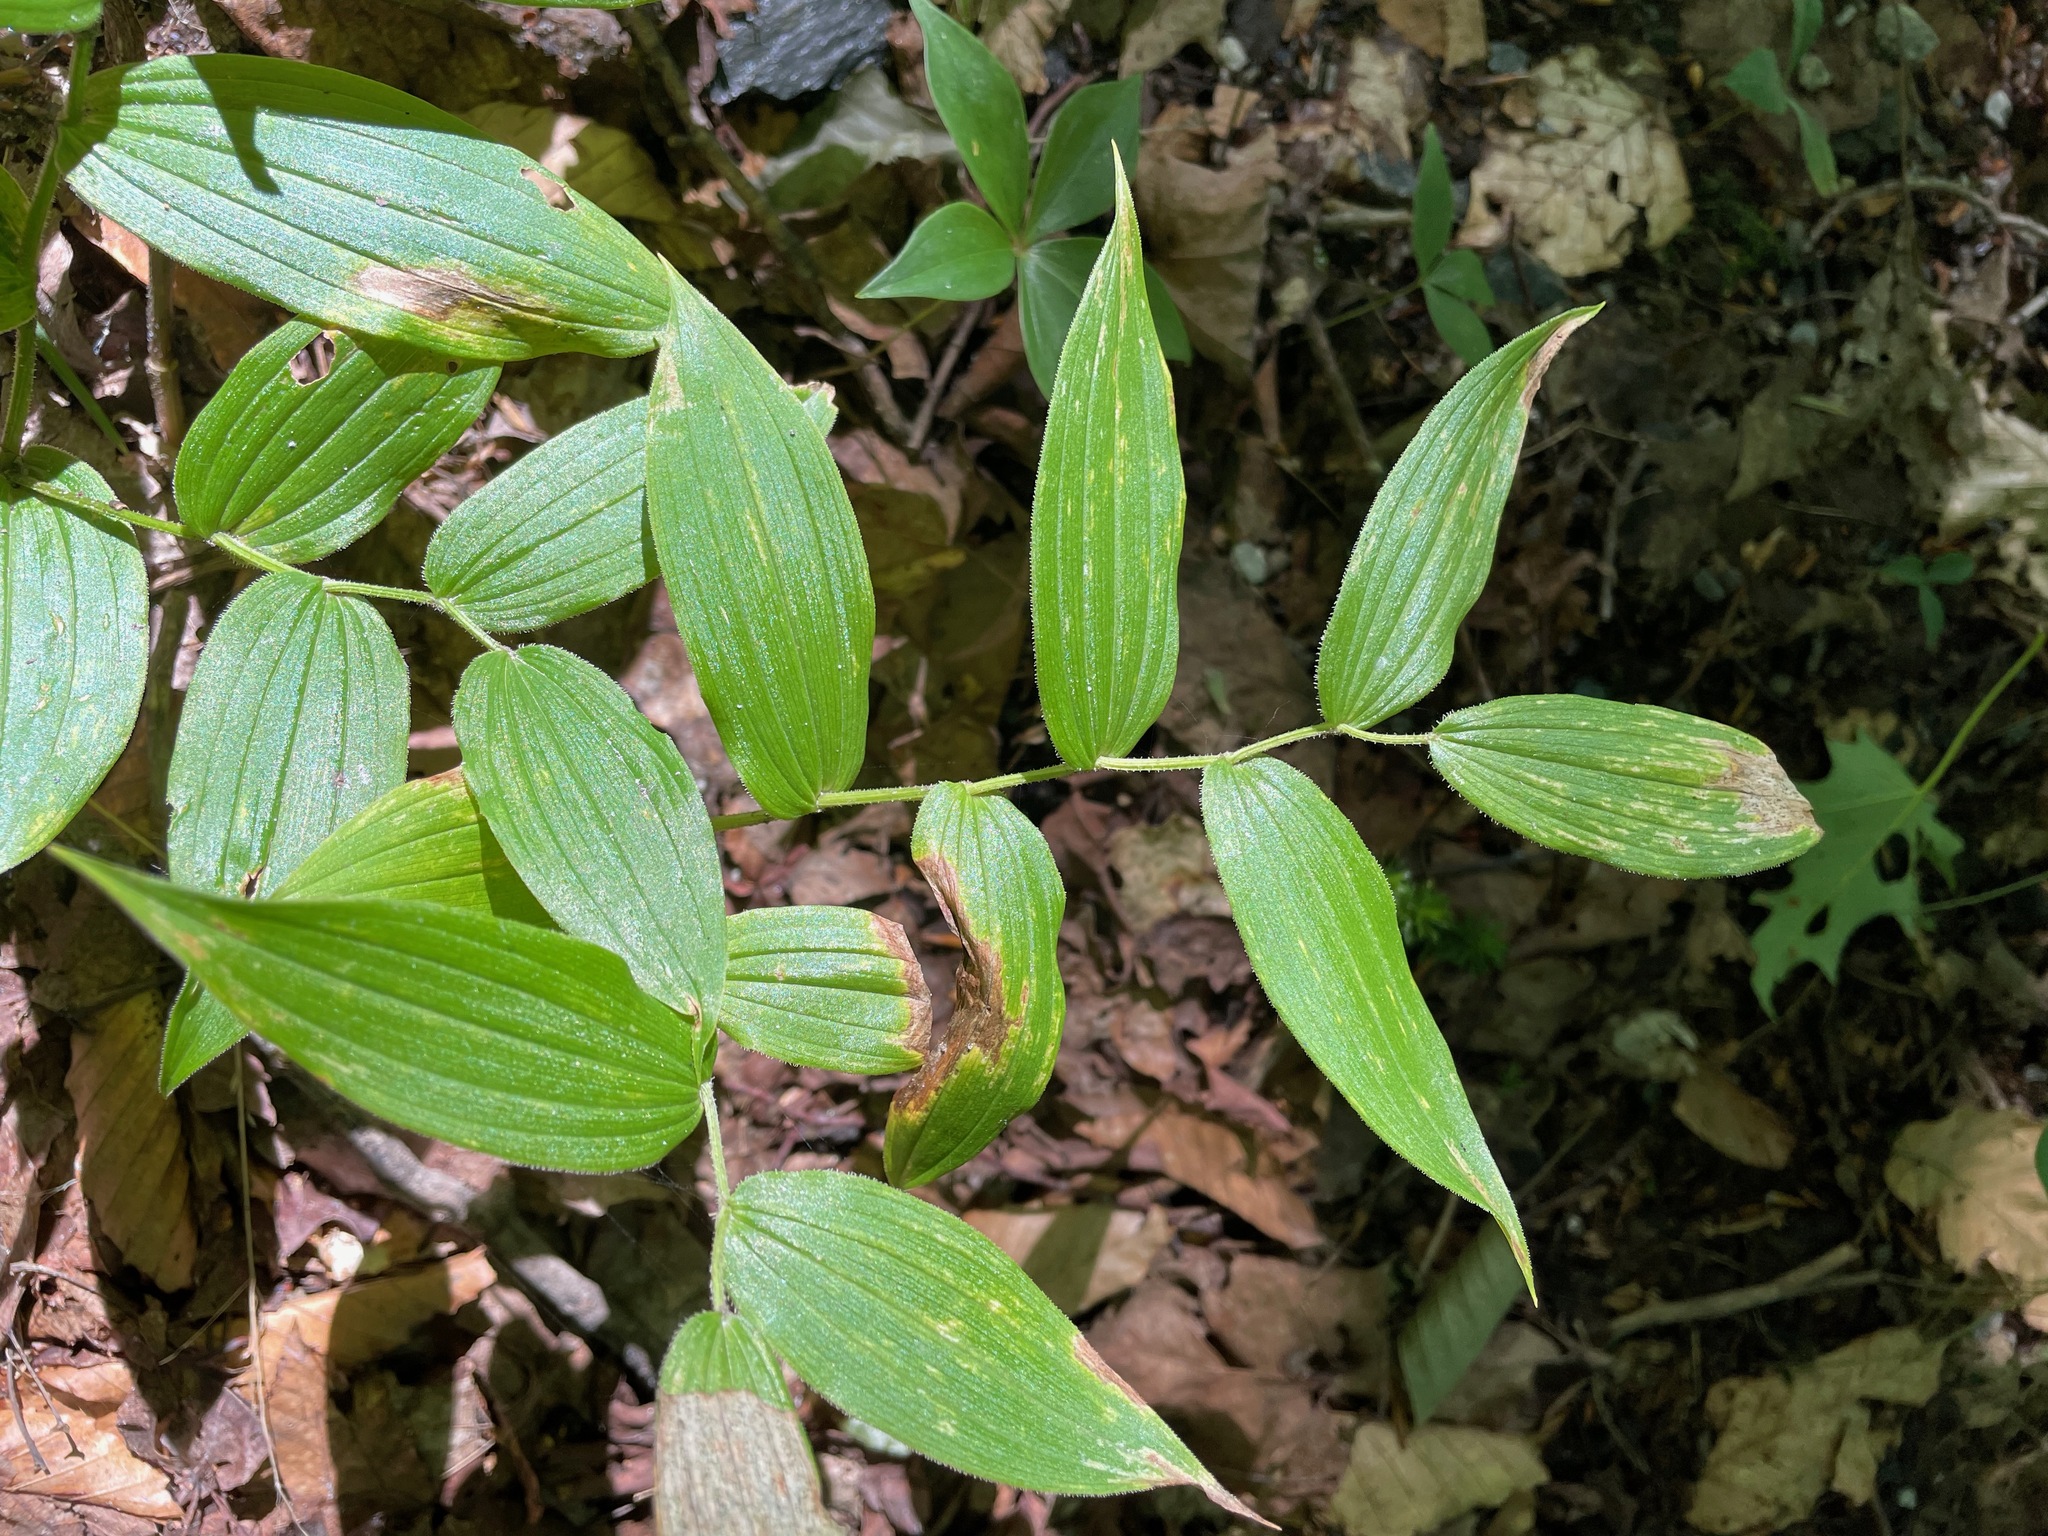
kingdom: Plantae
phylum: Tracheophyta
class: Liliopsida
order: Liliales
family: Liliaceae
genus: Streptopus
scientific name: Streptopus lanceolatus
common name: Rose mandarin
